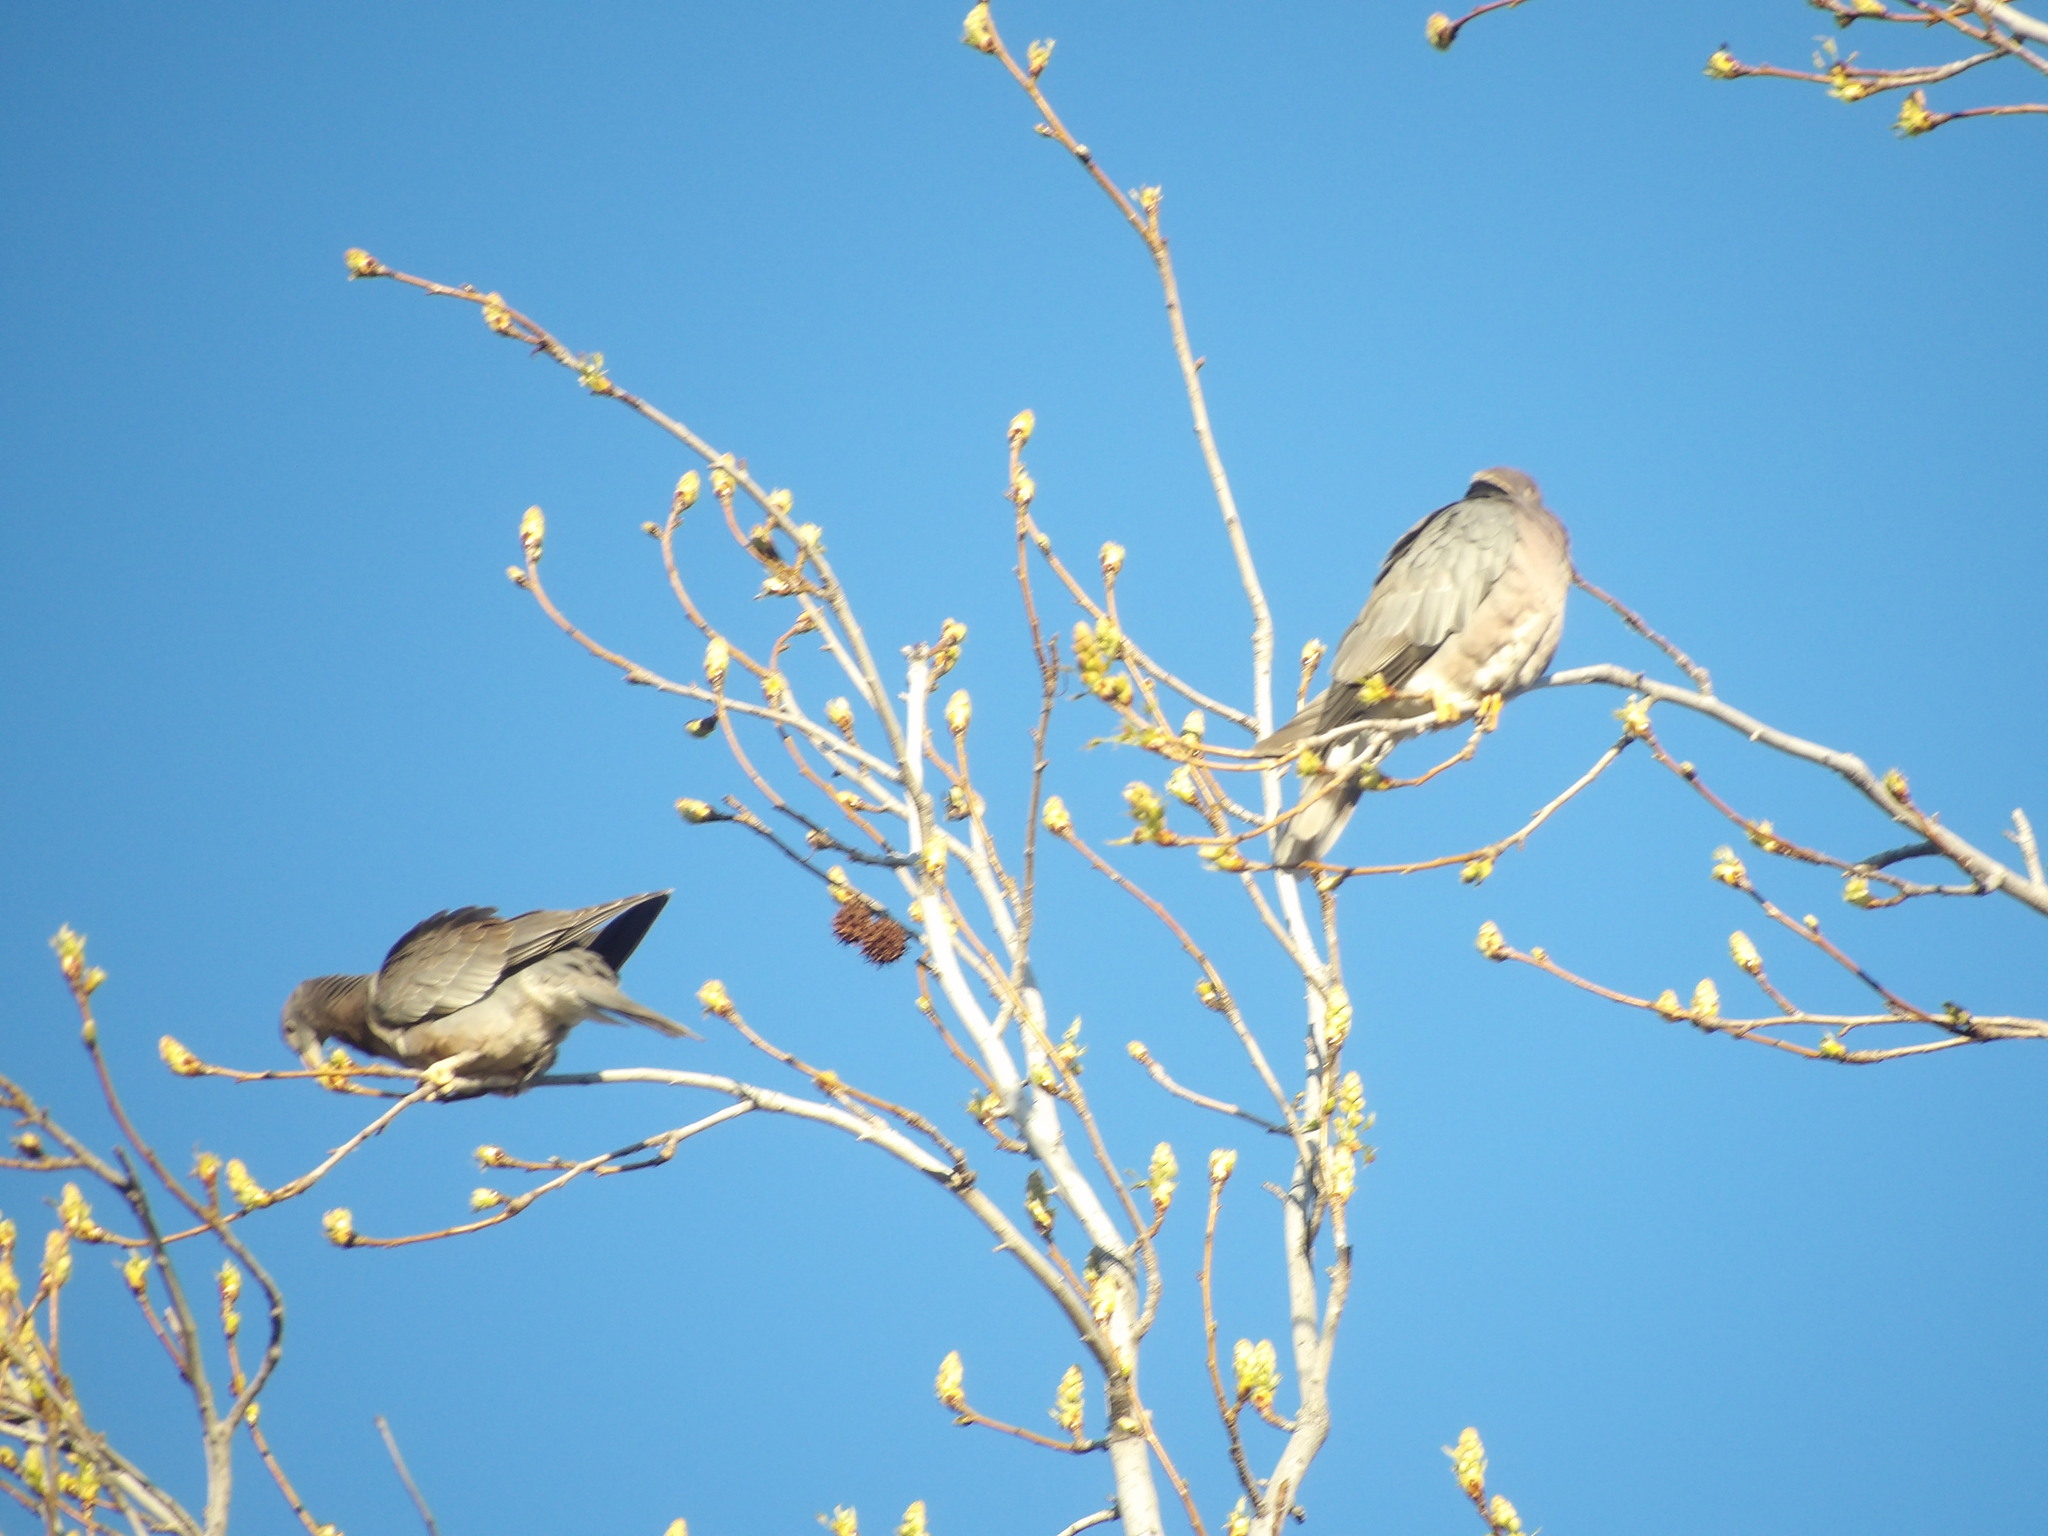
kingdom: Animalia
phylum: Chordata
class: Aves
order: Columbiformes
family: Columbidae
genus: Patagioenas
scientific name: Patagioenas fasciata
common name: Band-tailed pigeon
